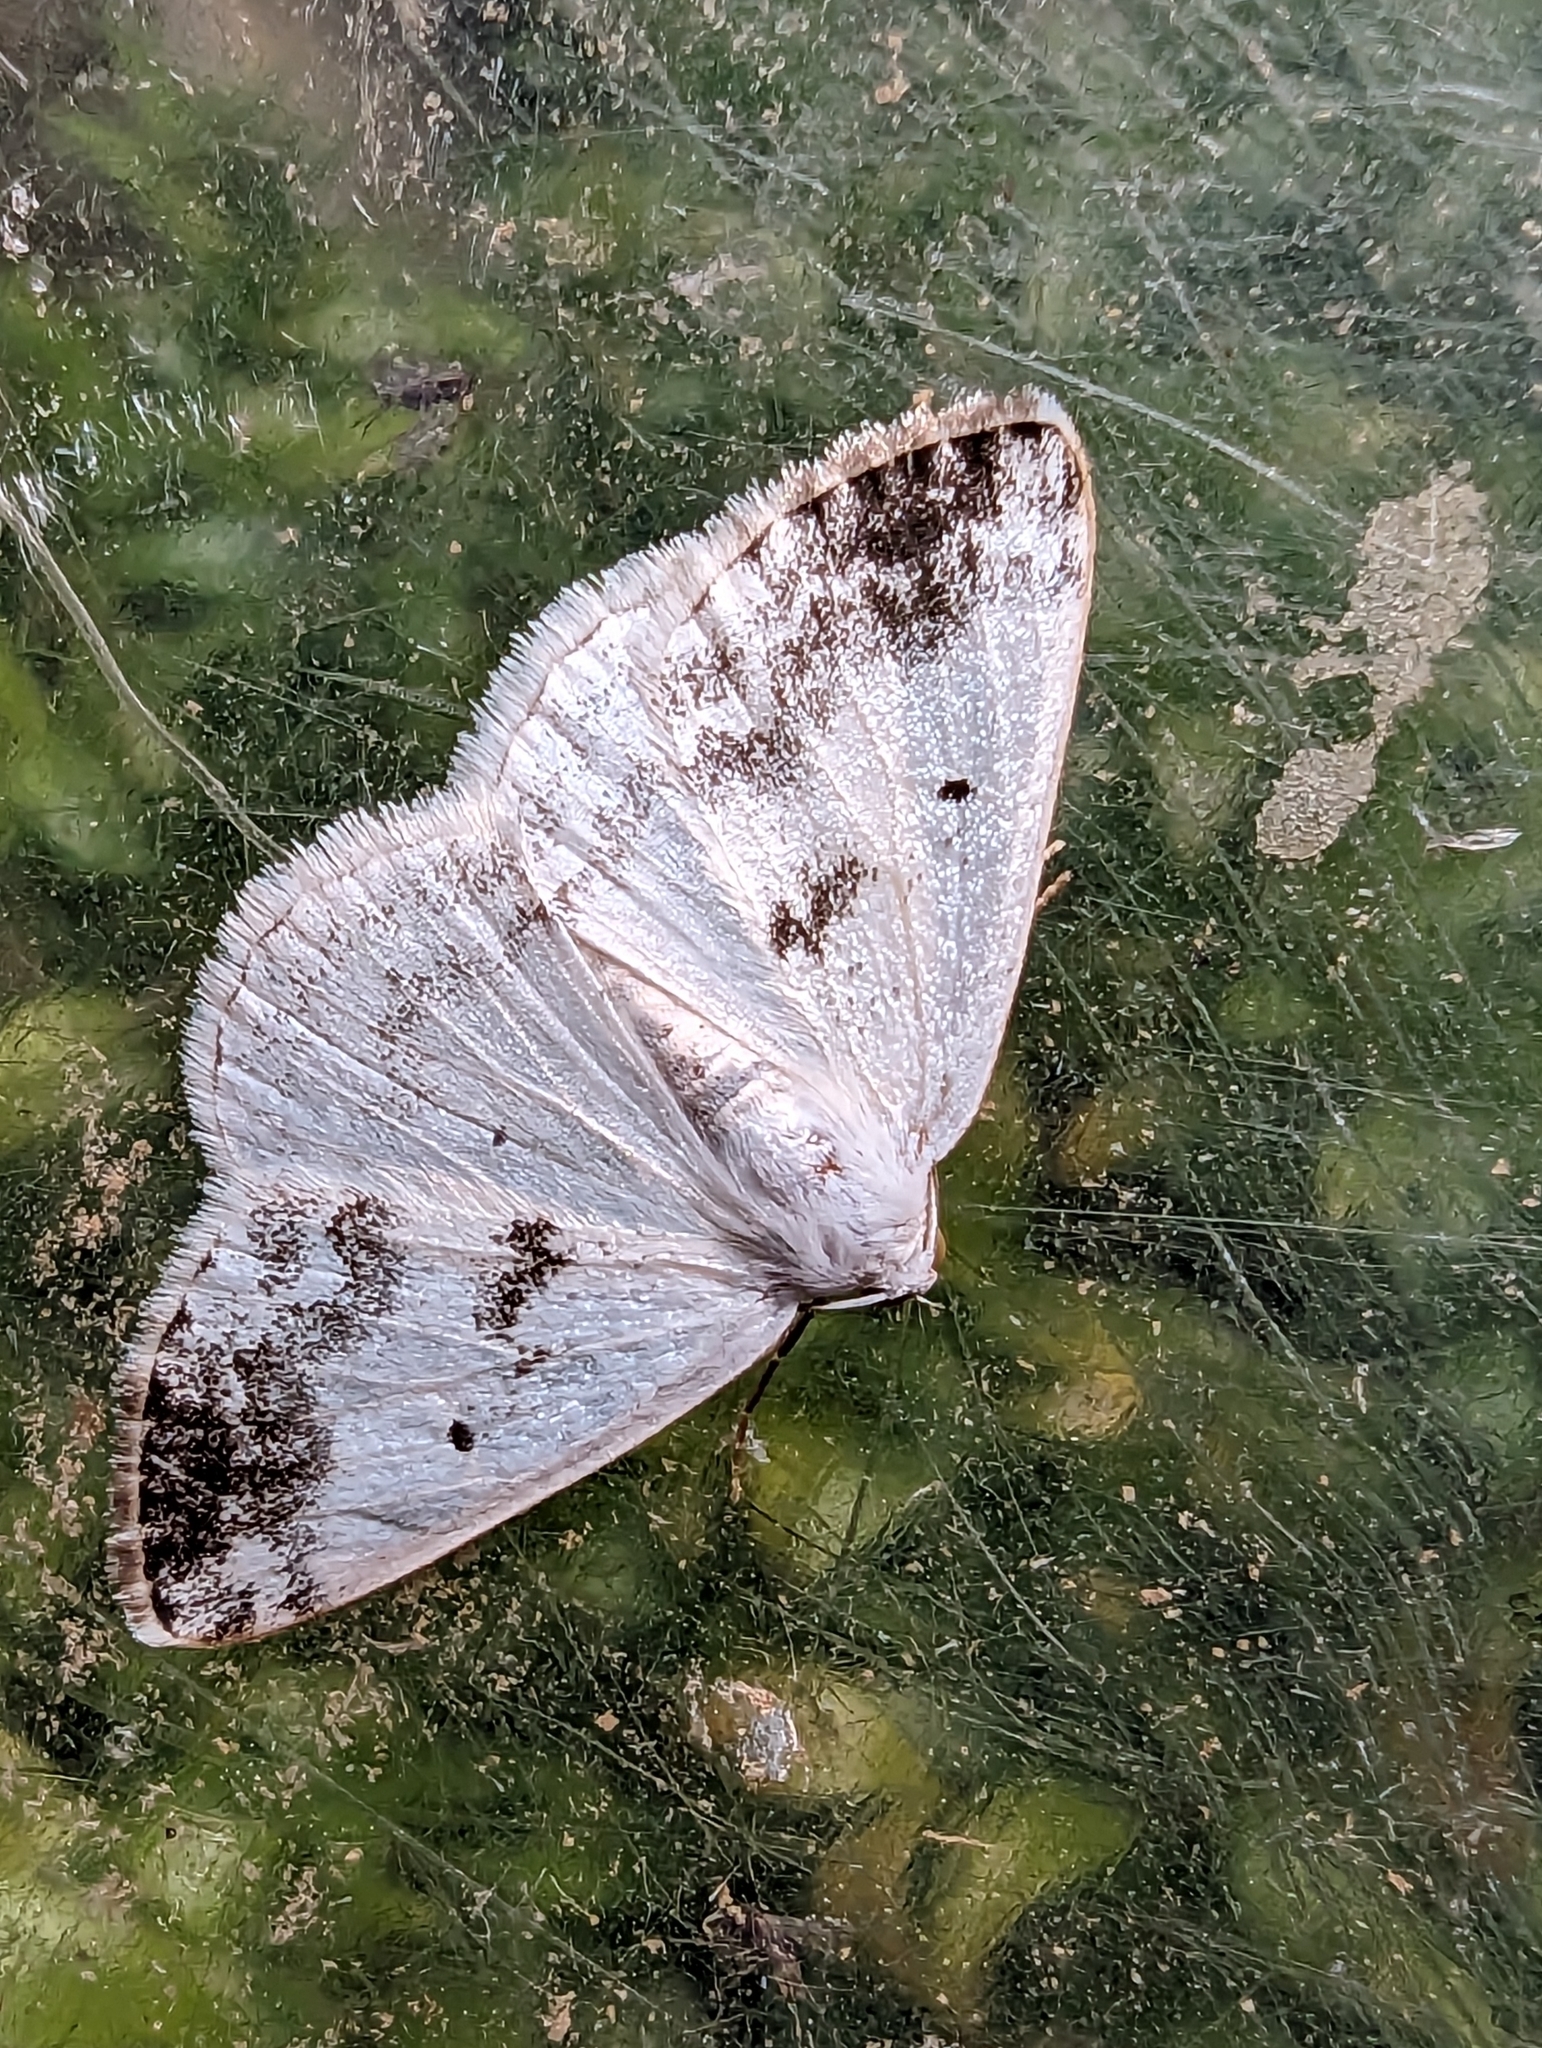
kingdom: Animalia
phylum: Arthropoda
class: Insecta
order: Lepidoptera
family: Geometridae
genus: Lomographa
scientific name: Lomographa temerata
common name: Clouded silver
